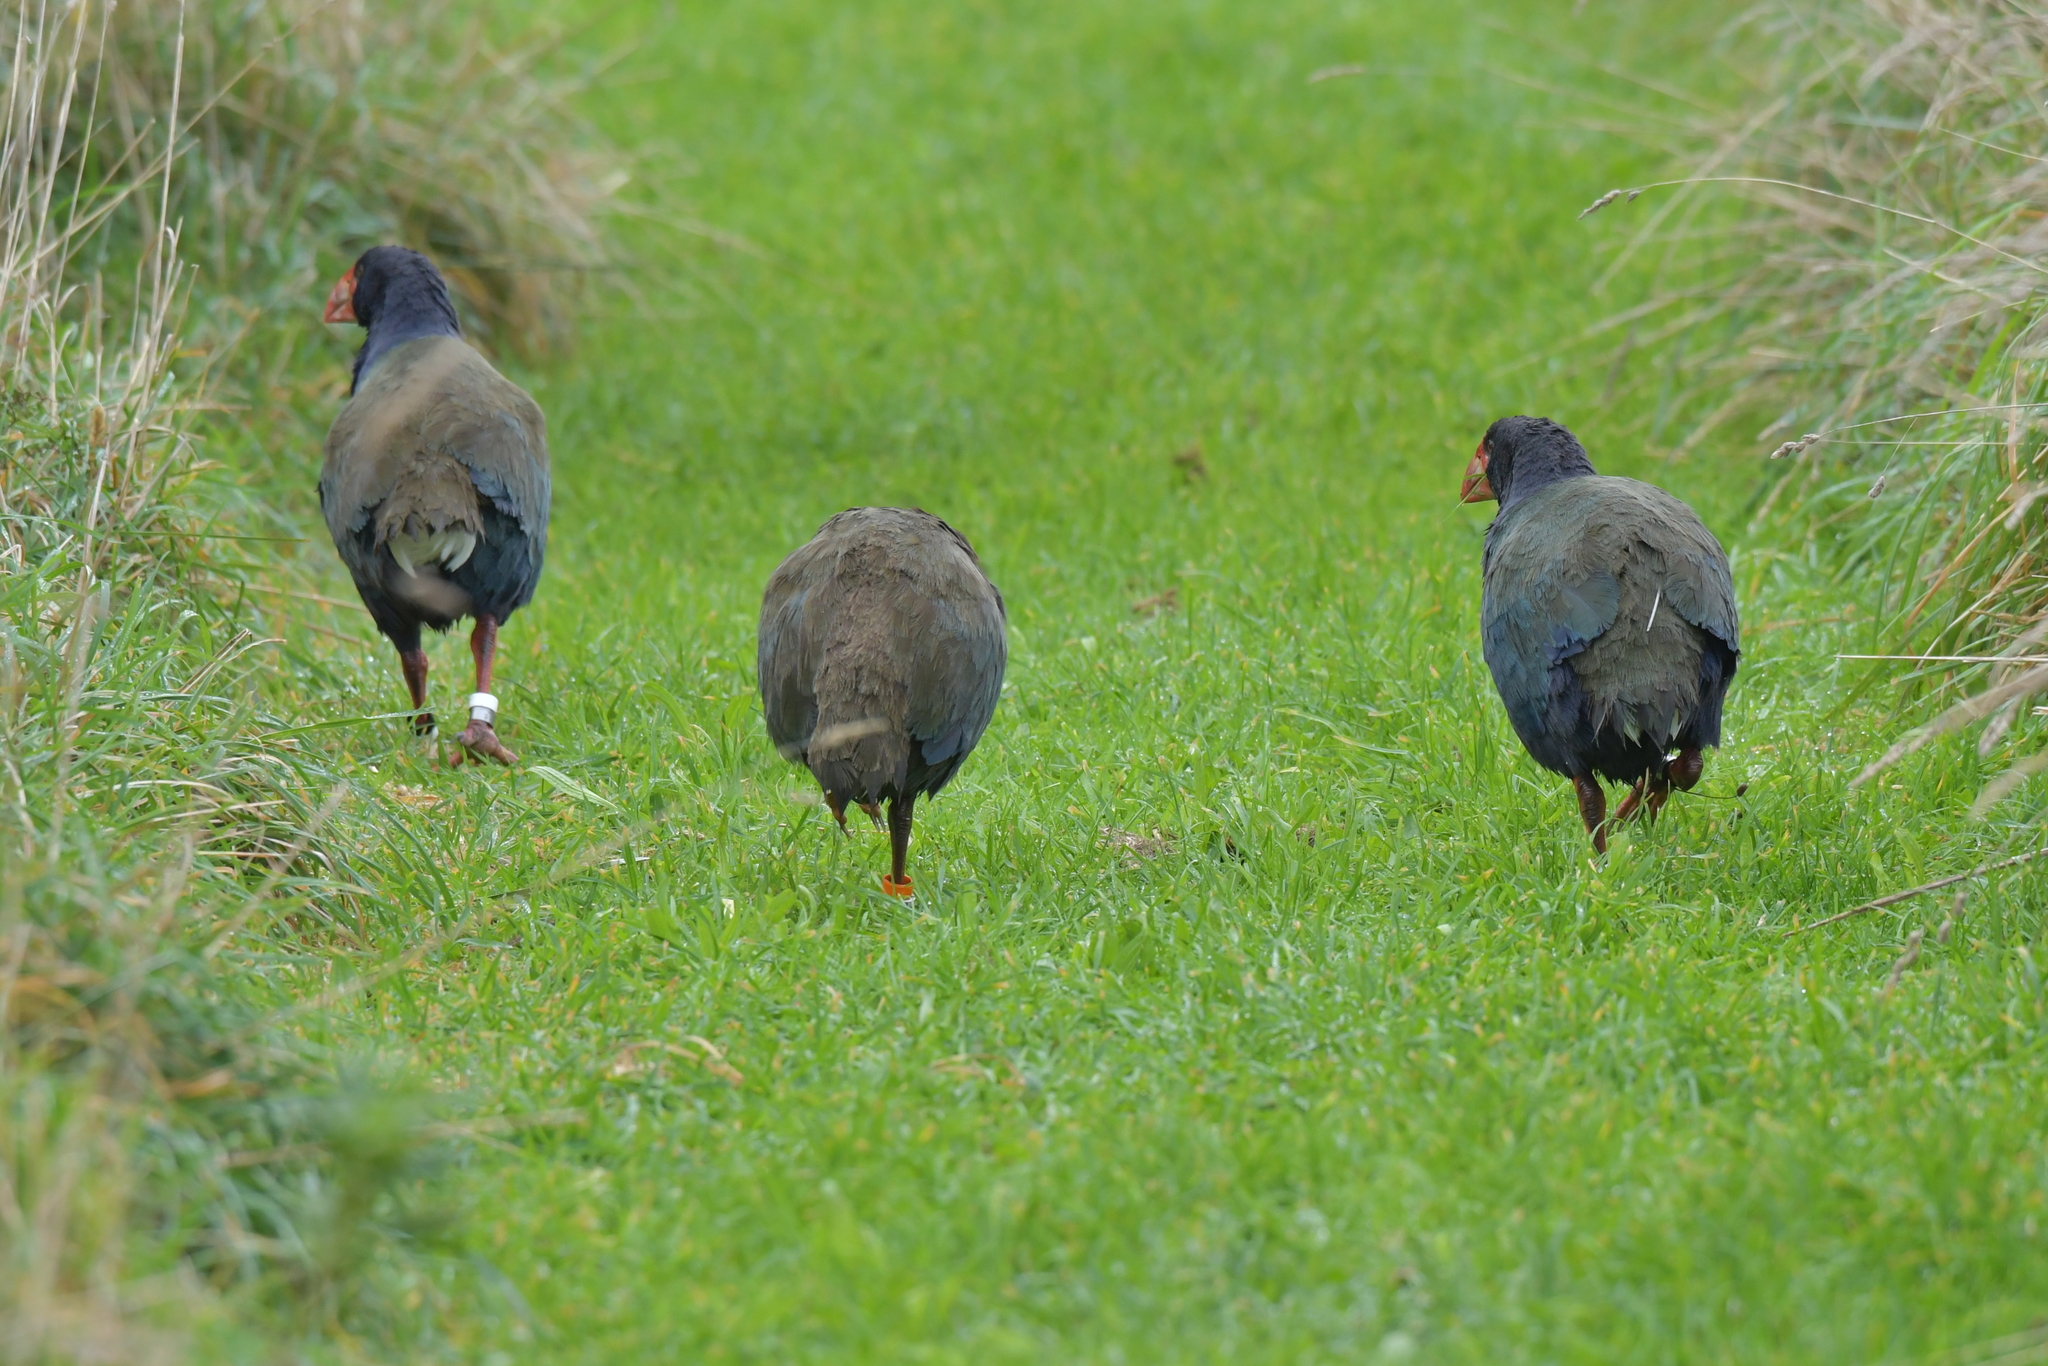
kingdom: Animalia
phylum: Chordata
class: Aves
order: Gruiformes
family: Rallidae
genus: Porphyrio
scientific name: Porphyrio hochstetteri
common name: South island takahe
